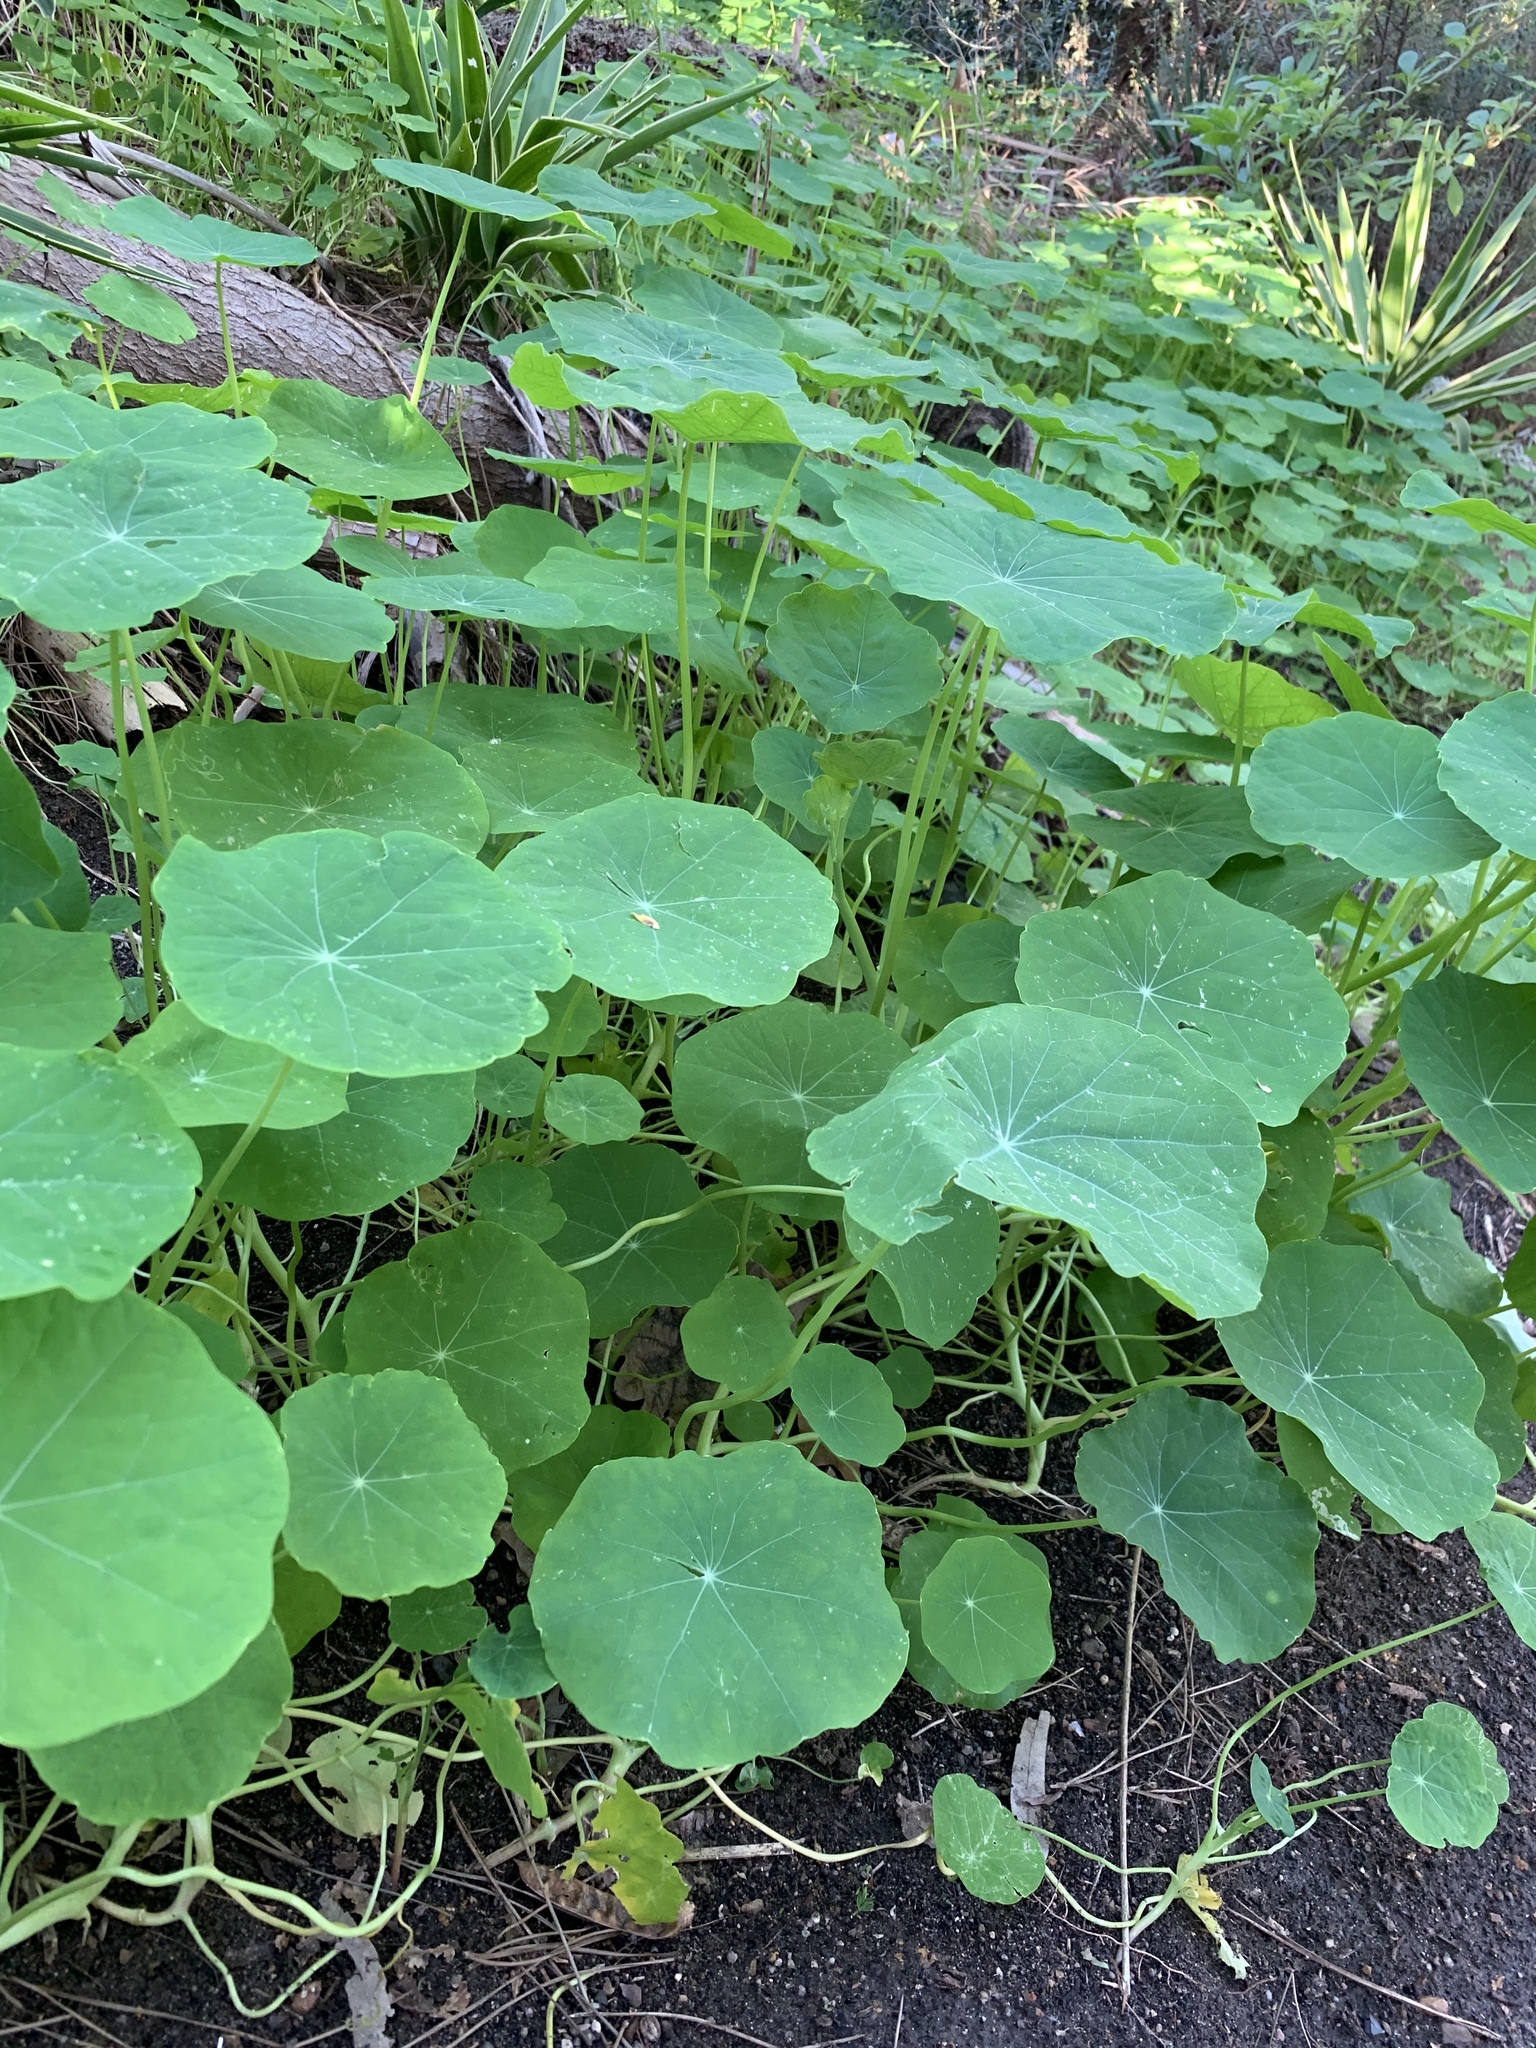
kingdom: Plantae
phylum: Tracheophyta
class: Magnoliopsida
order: Brassicales
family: Tropaeolaceae
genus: Tropaeolum
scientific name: Tropaeolum majus
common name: Nasturtium
